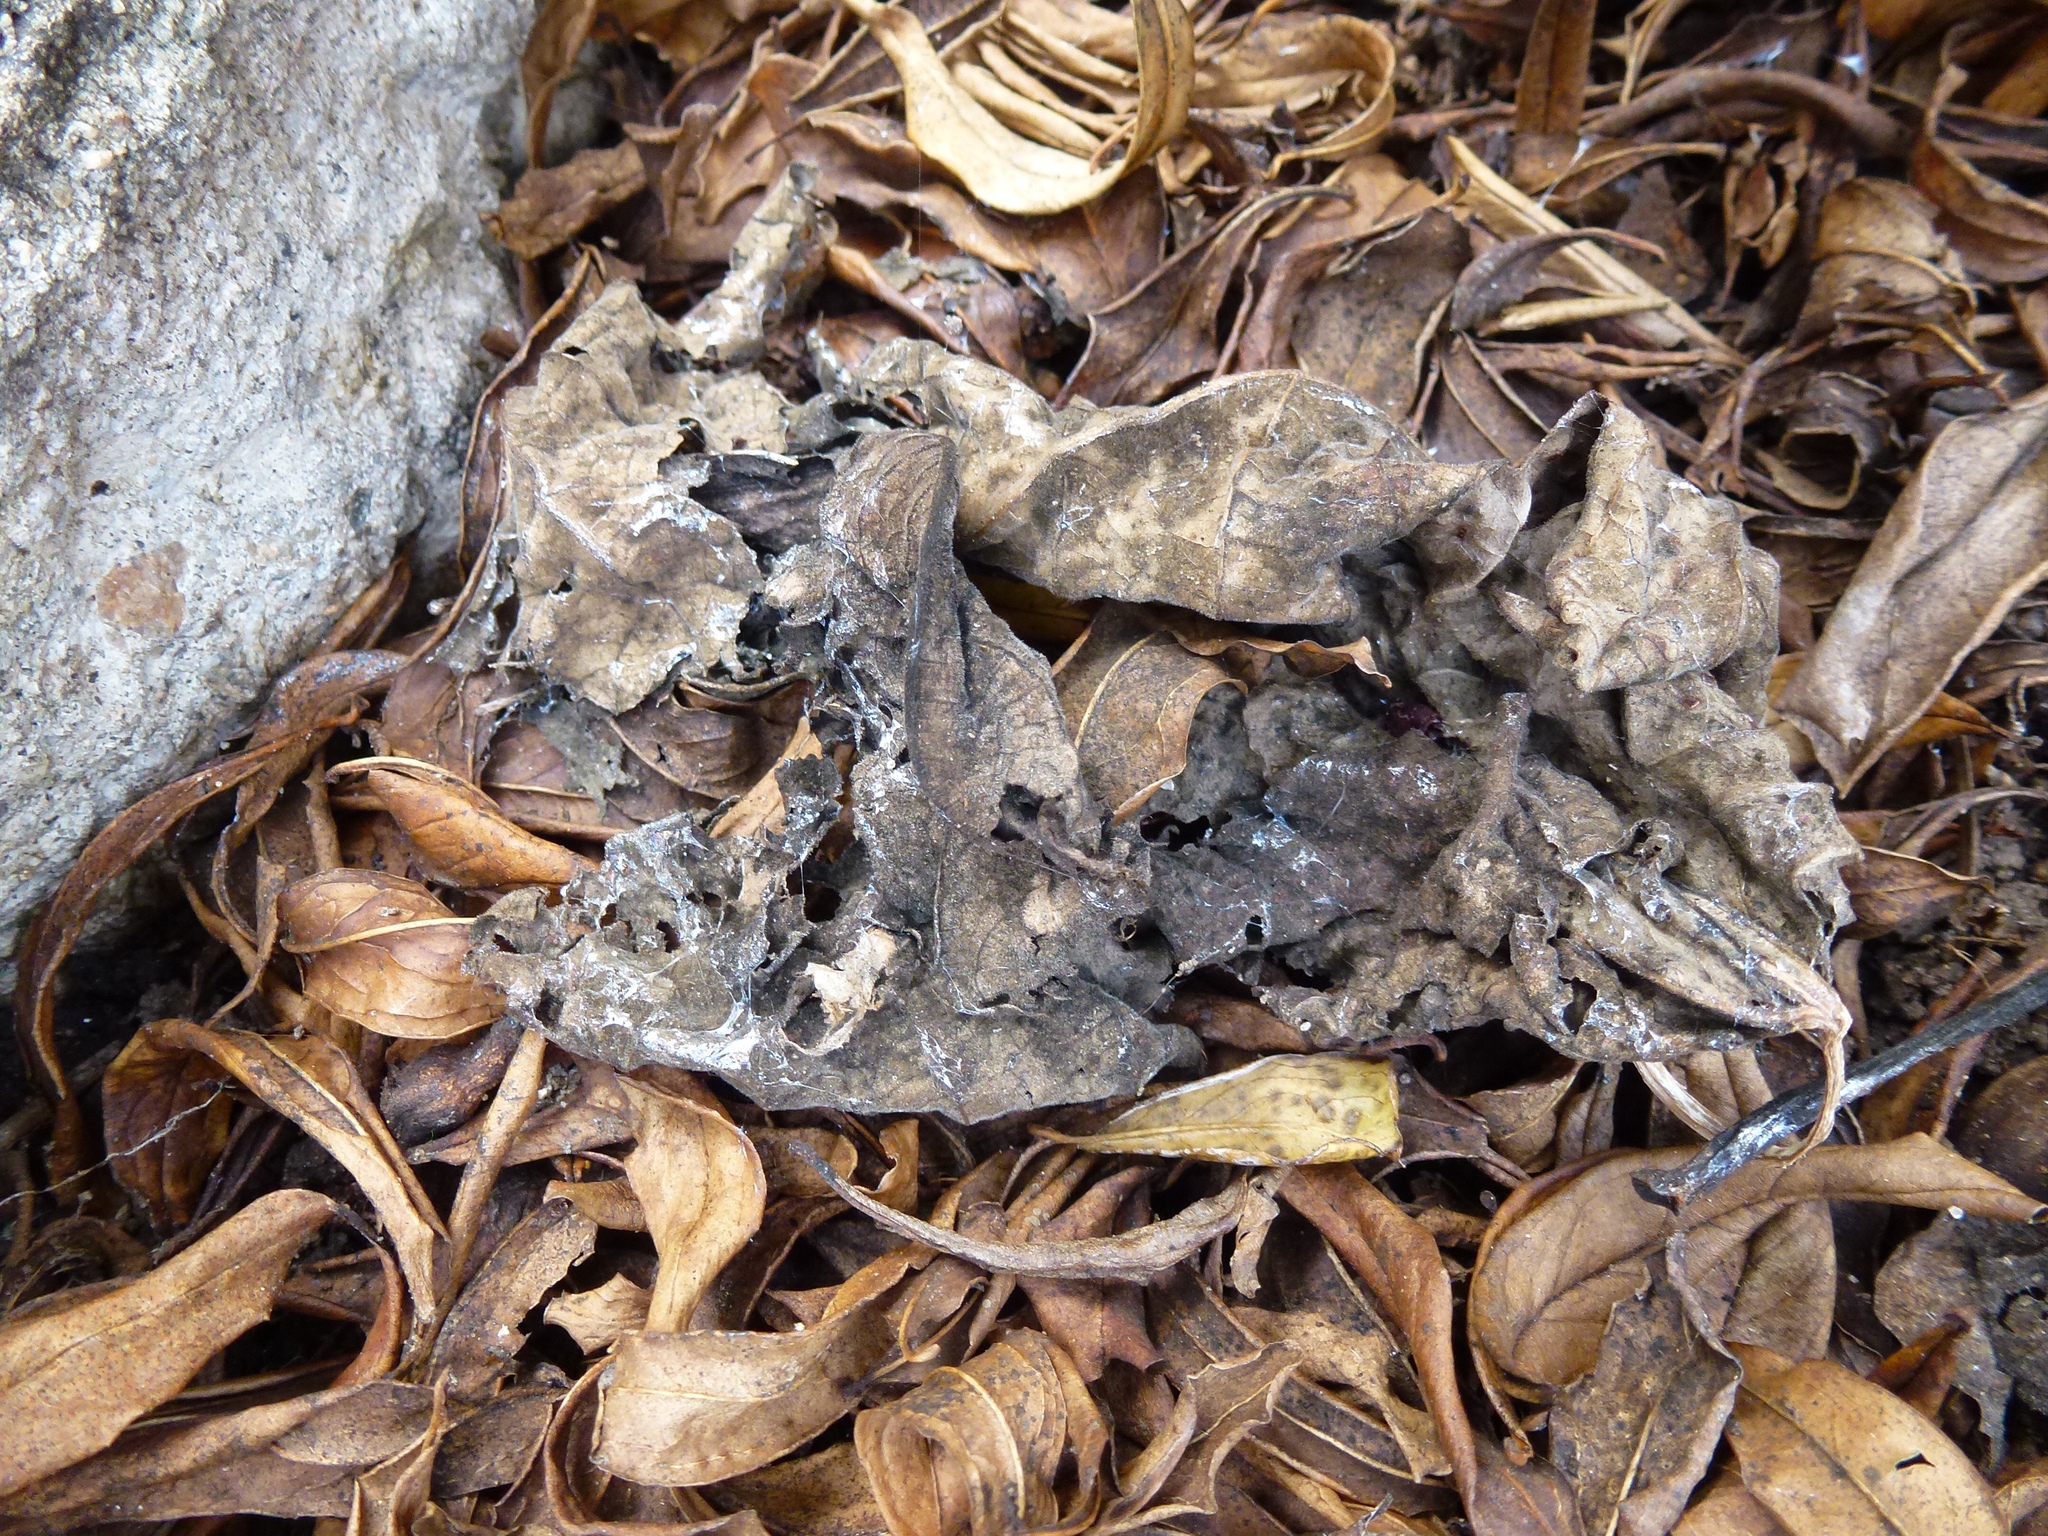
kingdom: Animalia
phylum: Mollusca
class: Gastropoda
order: Stylommatophora
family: Achatinidae
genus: Rumina
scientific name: Rumina decollata
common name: Decollate snail
